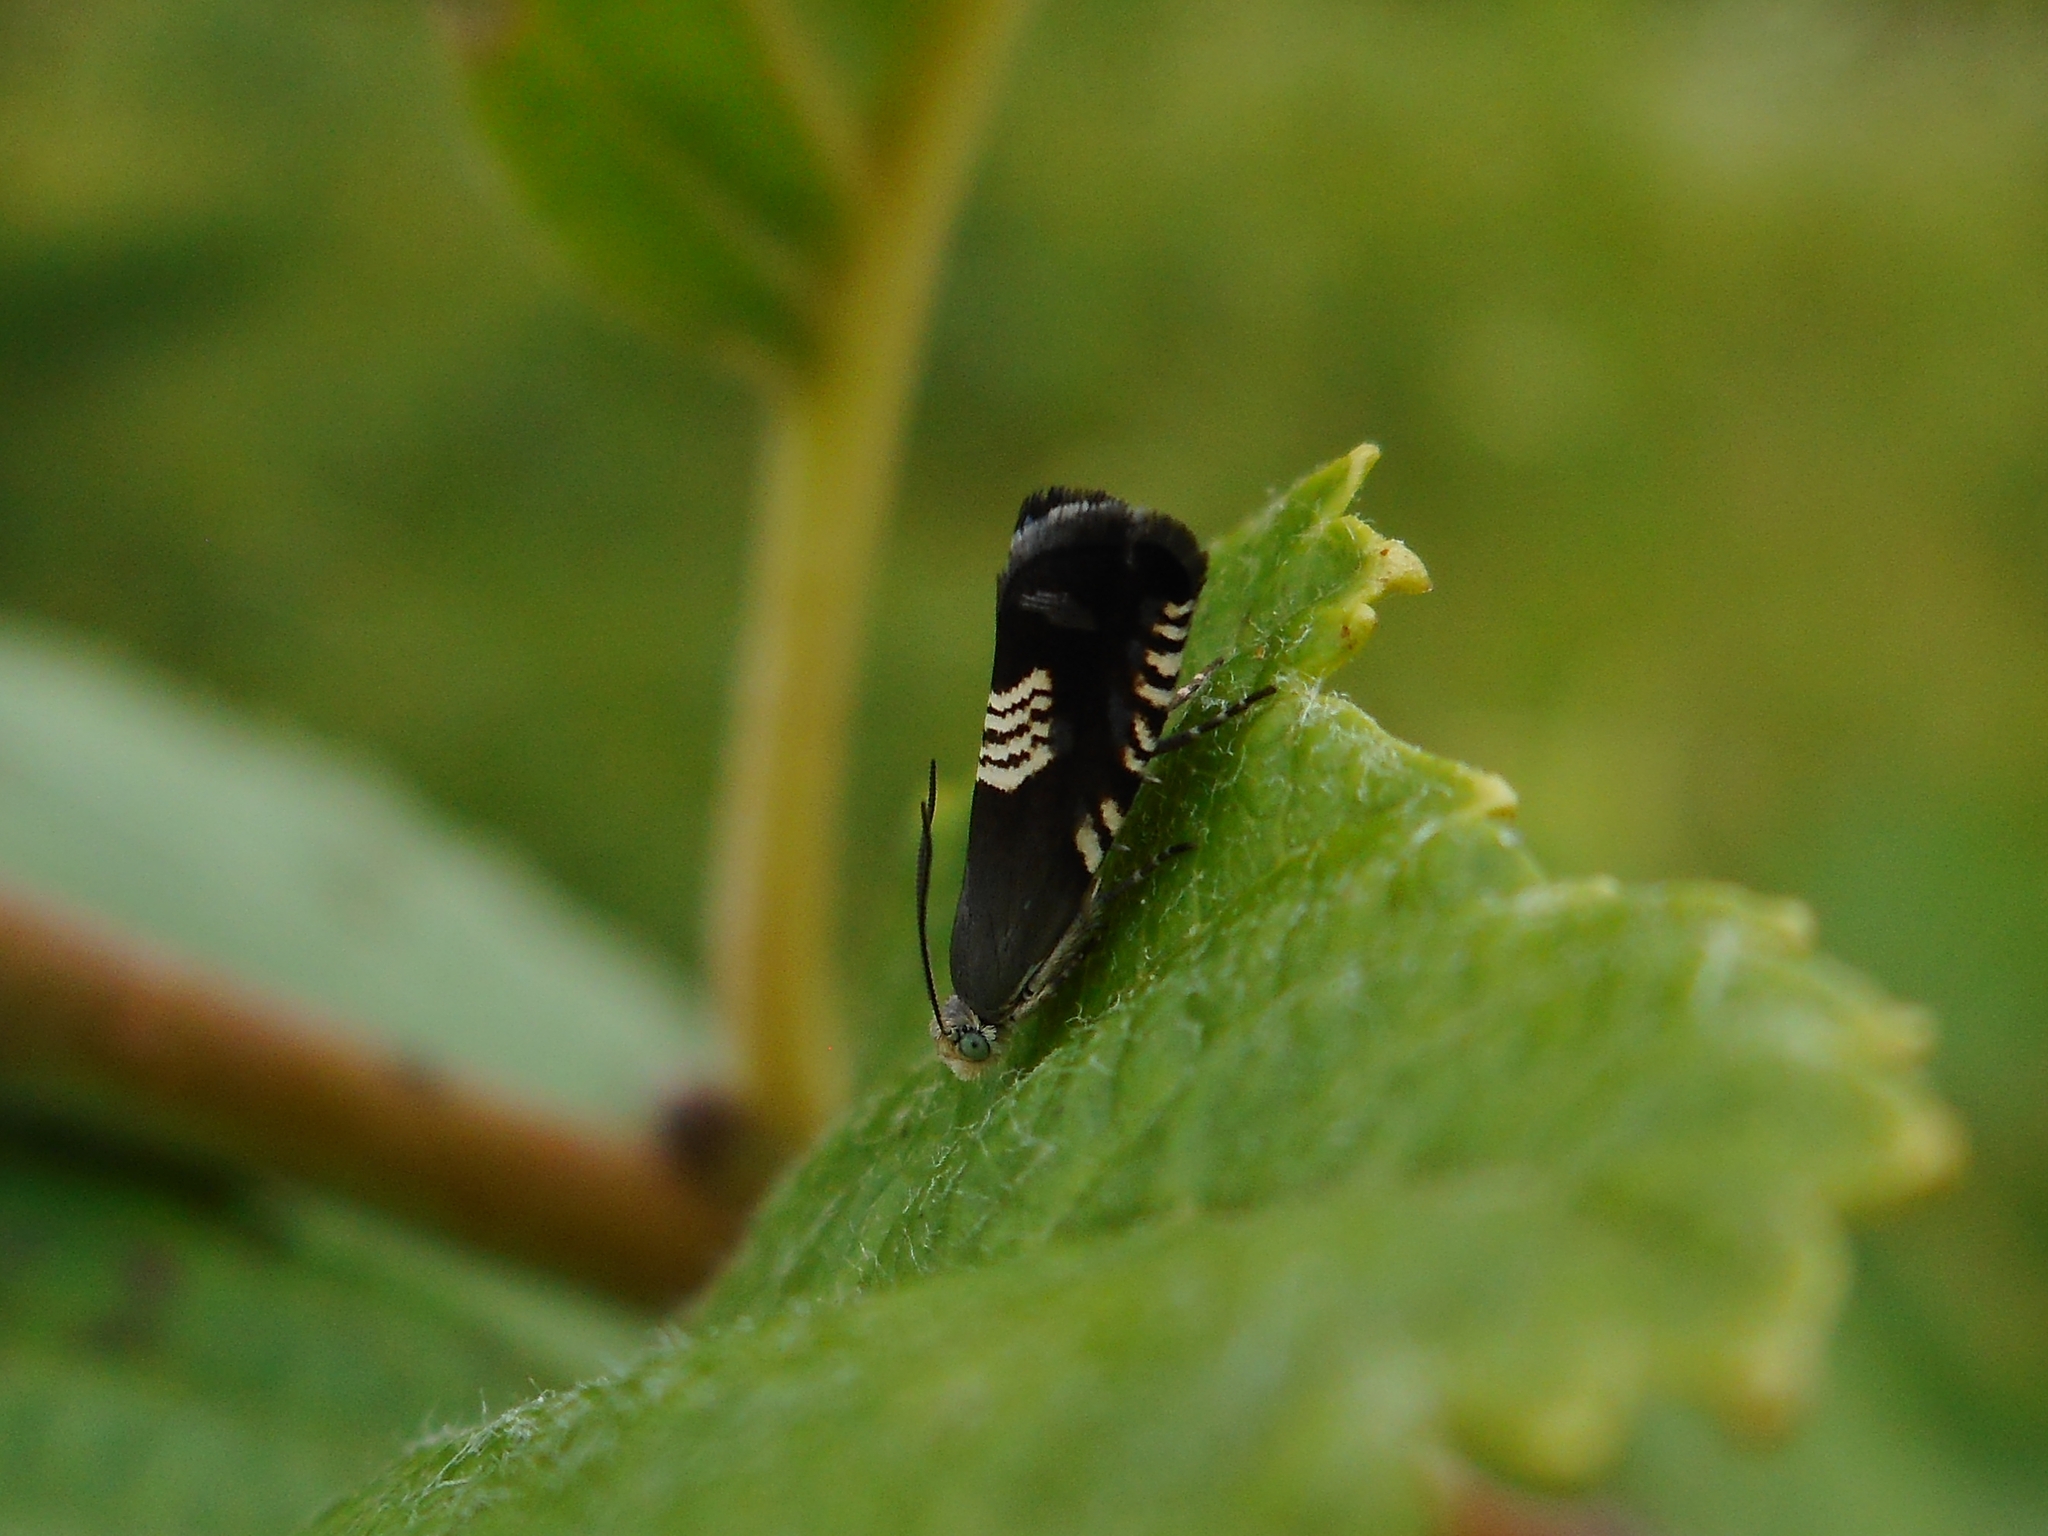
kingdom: Animalia
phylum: Arthropoda
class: Insecta
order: Lepidoptera
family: Tortricidae
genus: Grapholita
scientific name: Grapholita compositella
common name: Triple-stripe piercer
